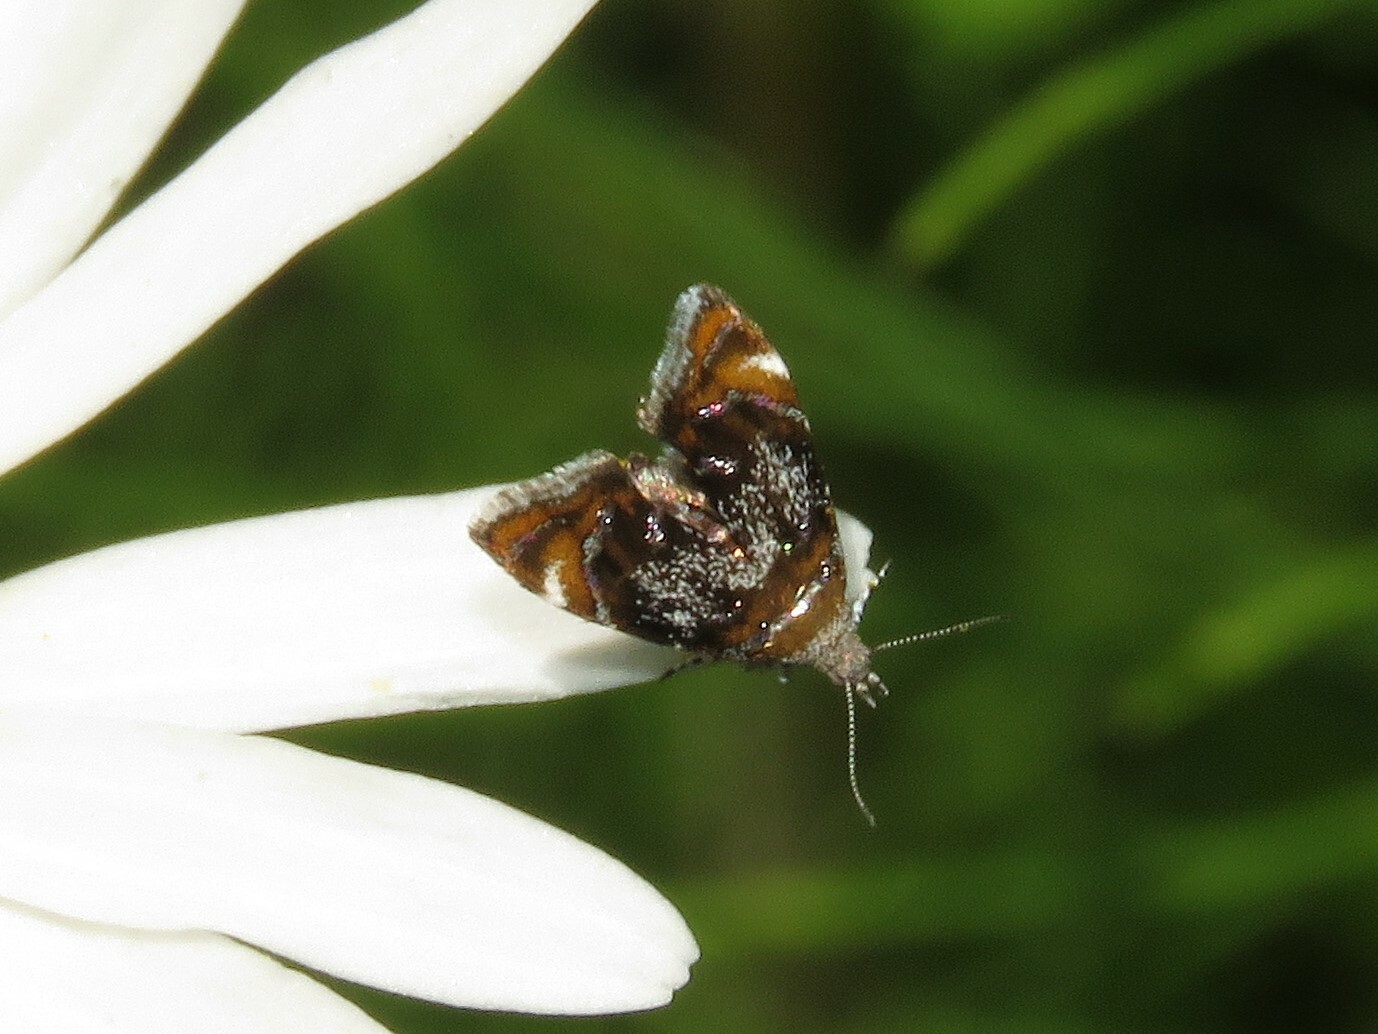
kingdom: Animalia
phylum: Arthropoda
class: Insecta
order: Lepidoptera
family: Choreutidae
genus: Prochoreutis
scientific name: Prochoreutis inflatella
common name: Skullcap skeletonizer moth
